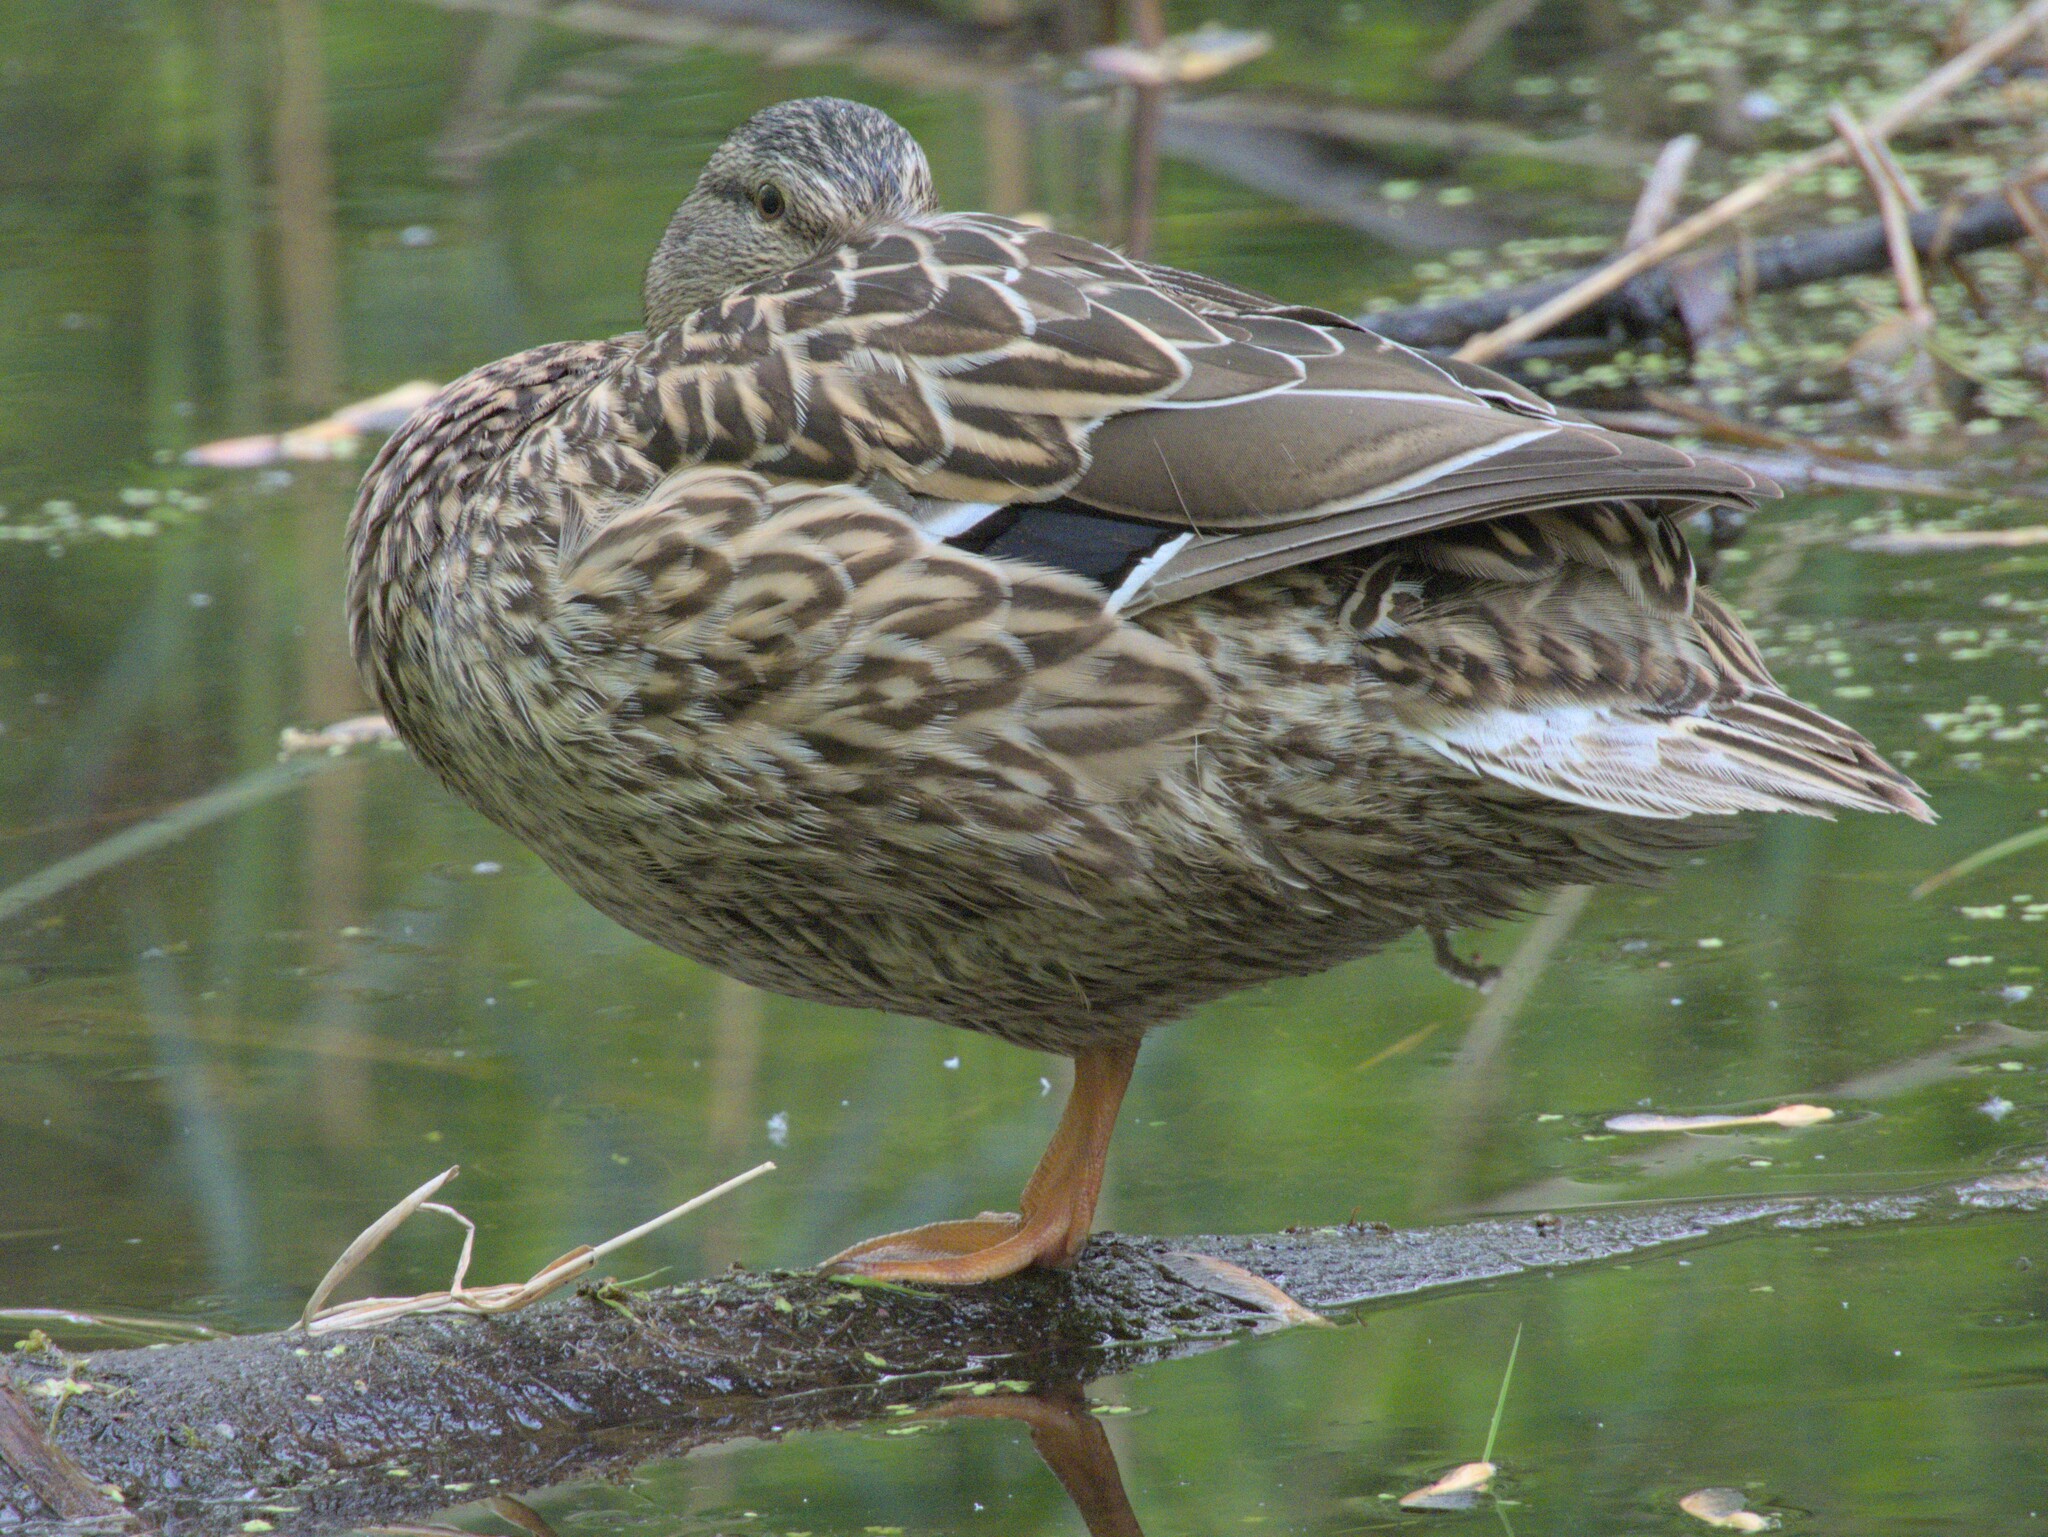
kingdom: Animalia
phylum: Chordata
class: Aves
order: Anseriformes
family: Anatidae
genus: Anas
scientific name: Anas platyrhynchos
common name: Mallard
